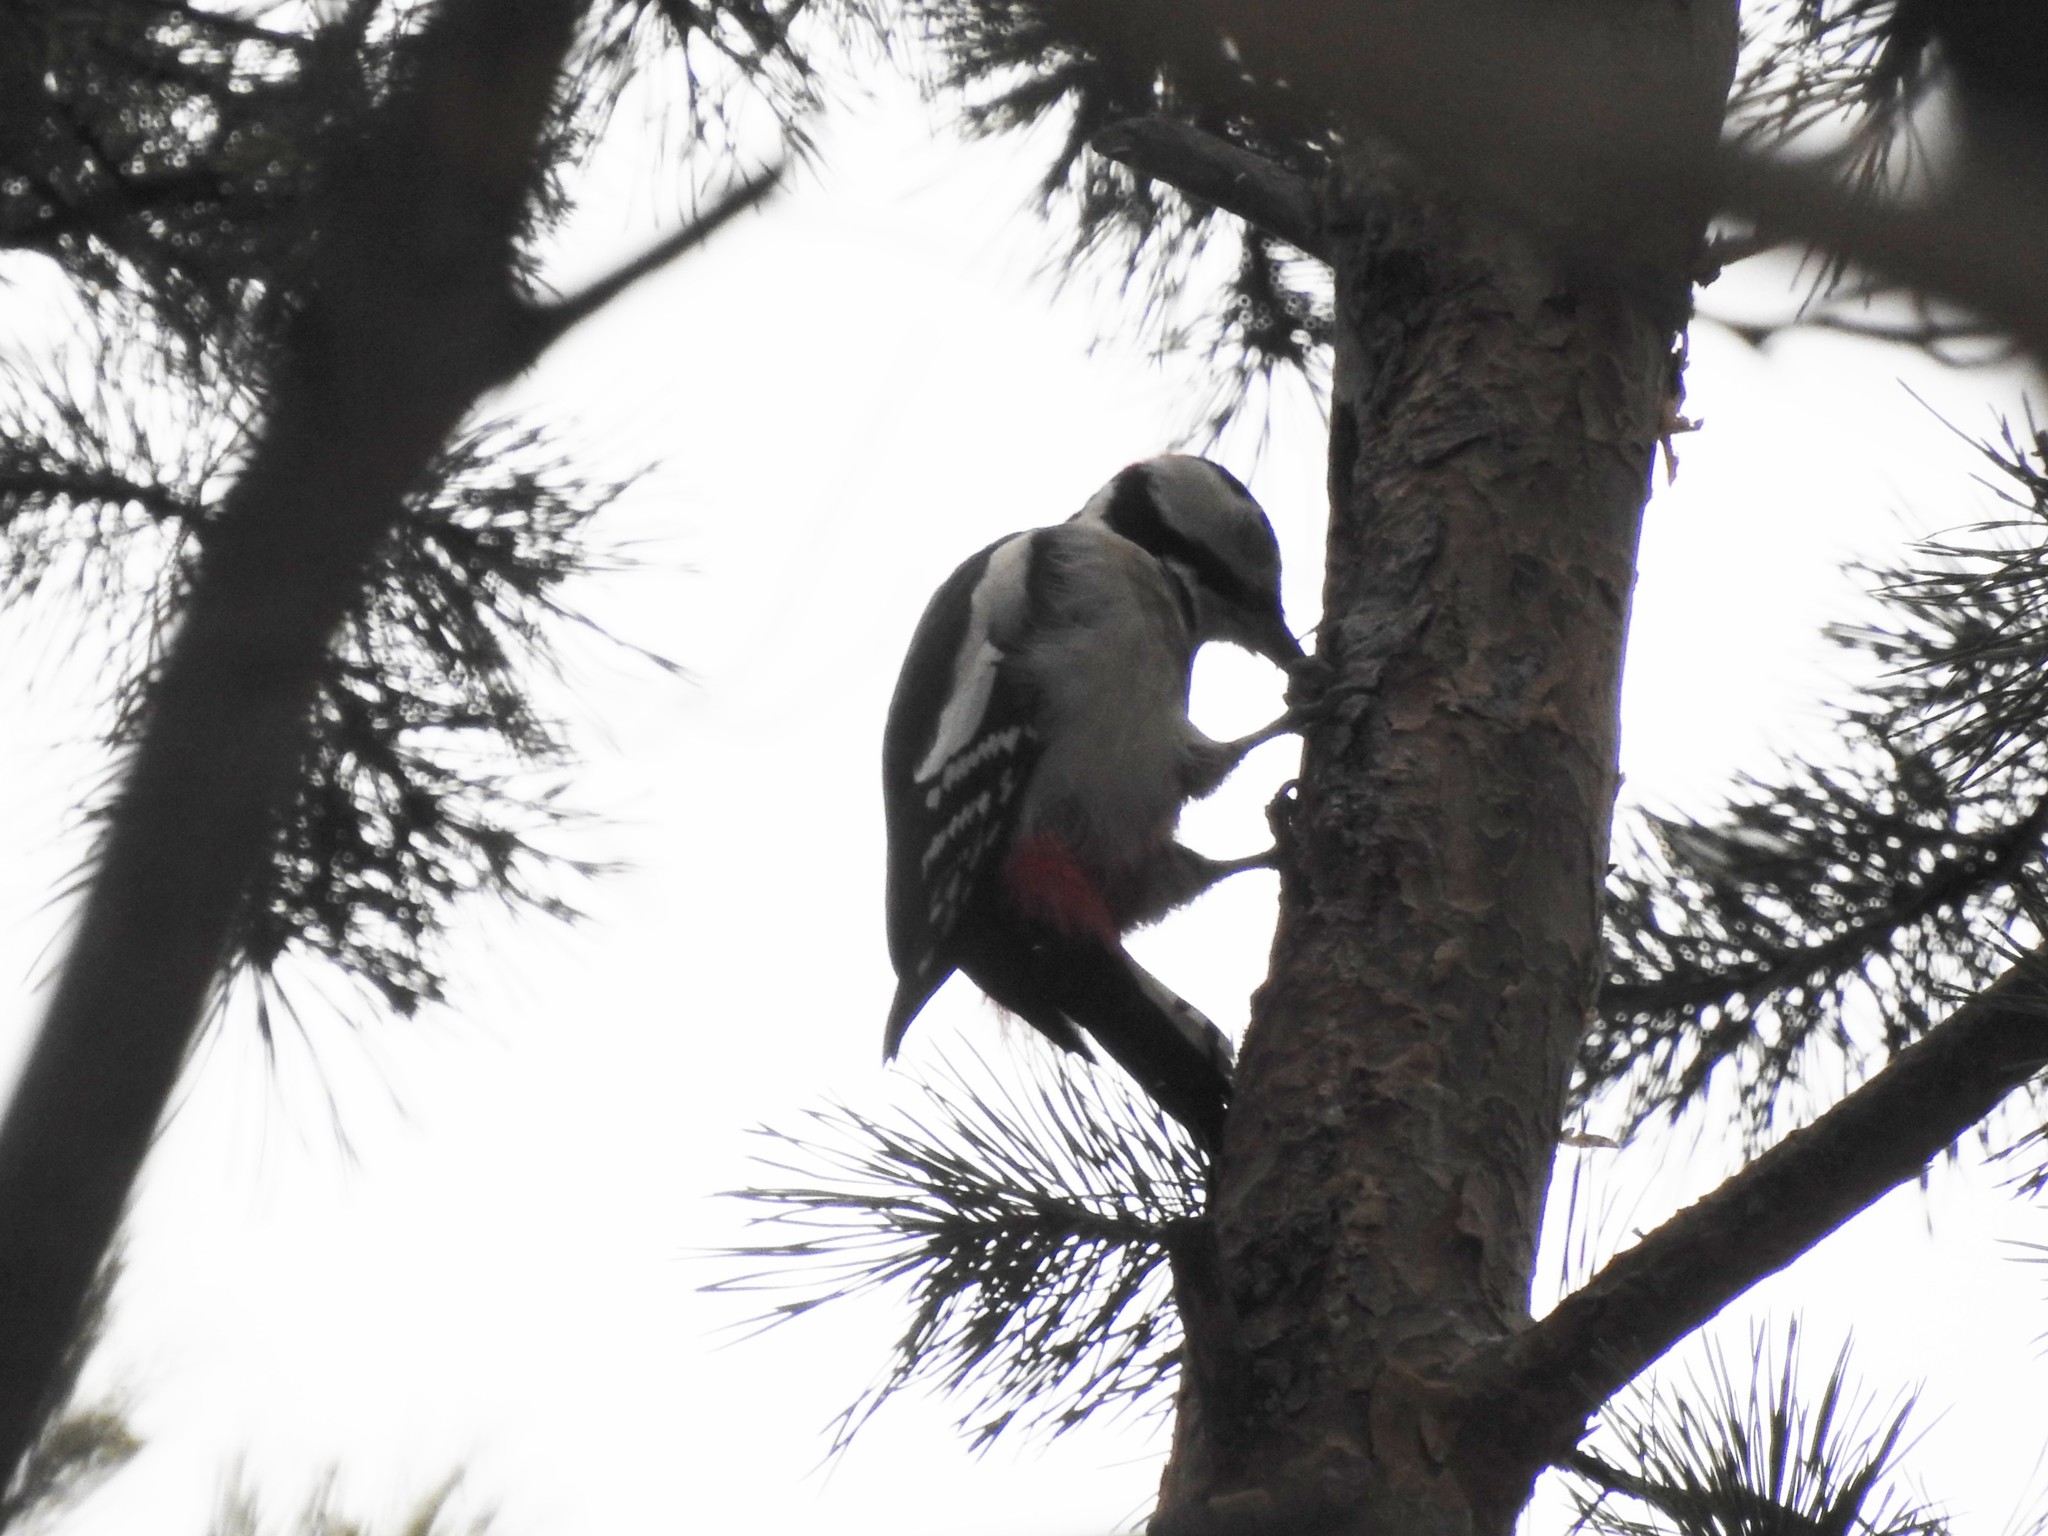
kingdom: Animalia
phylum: Chordata
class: Aves
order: Piciformes
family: Picidae
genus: Dendrocopos
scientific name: Dendrocopos major
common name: Great spotted woodpecker
